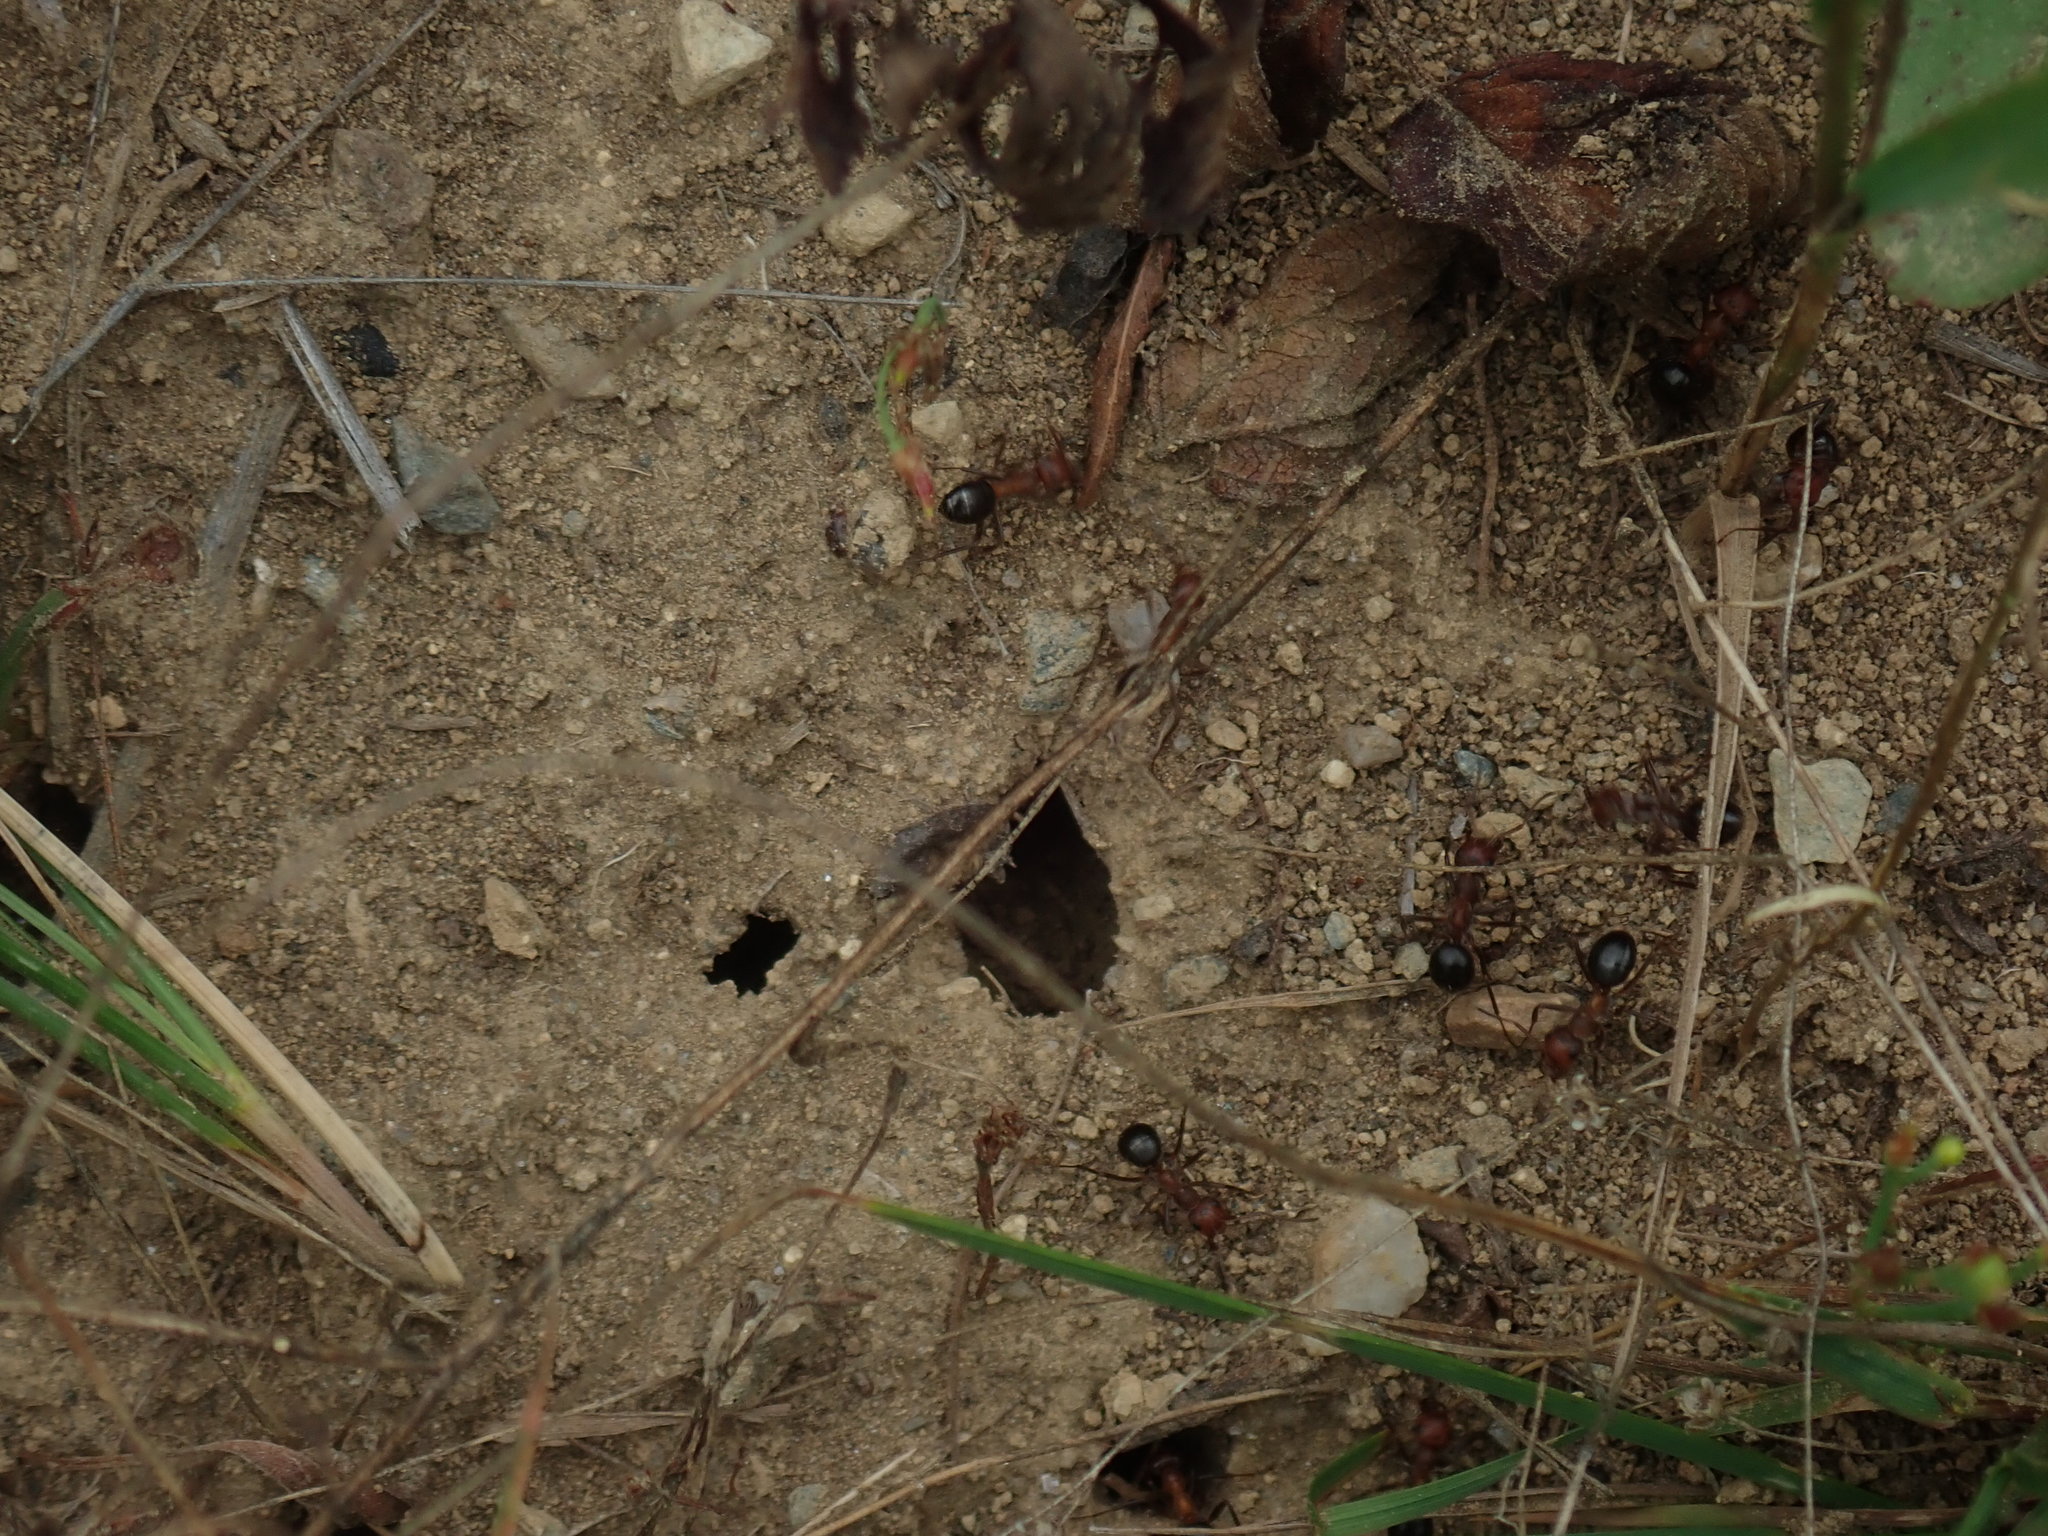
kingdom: Animalia
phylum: Arthropoda
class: Insecta
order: Hymenoptera
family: Formicidae
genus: Formica
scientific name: Formica exsectoides
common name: Allegheny mound ant
